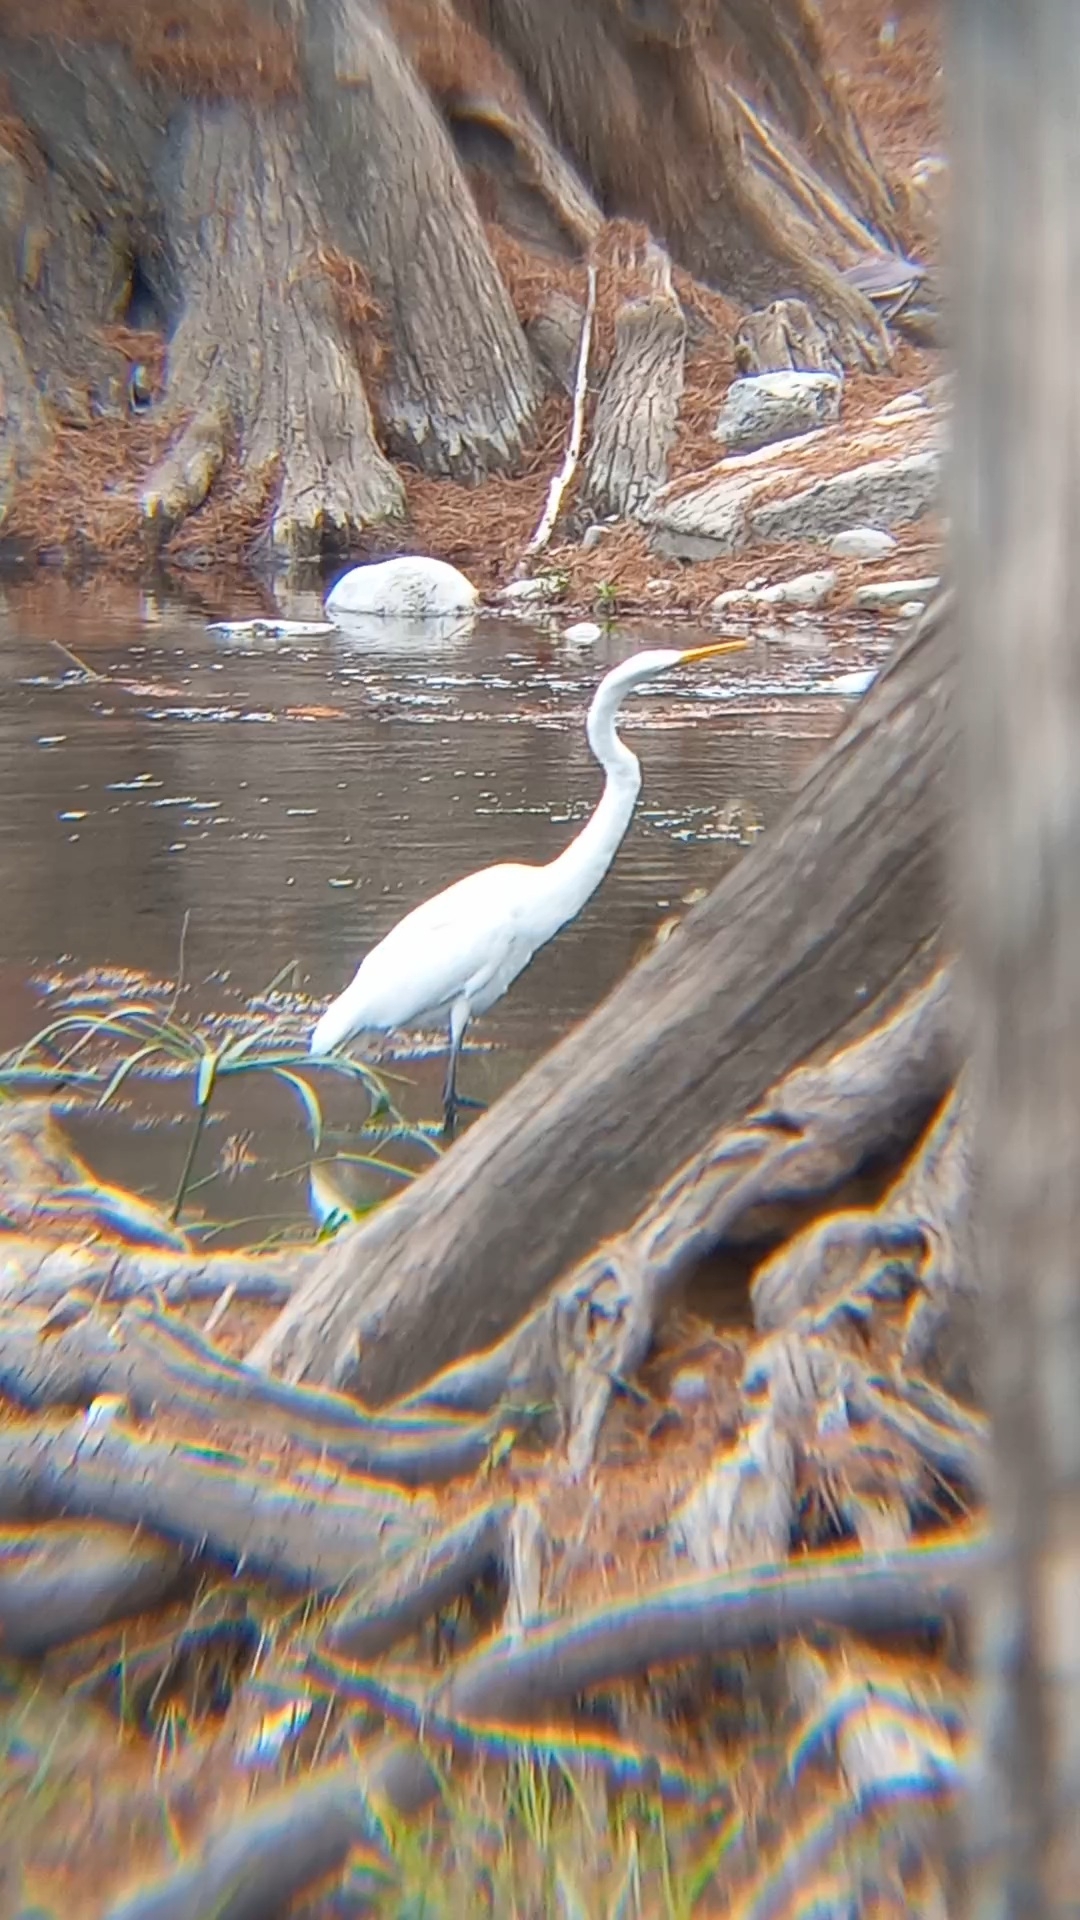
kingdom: Animalia
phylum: Chordata
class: Aves
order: Pelecaniformes
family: Ardeidae
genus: Ardea
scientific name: Ardea alba
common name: Great egret
